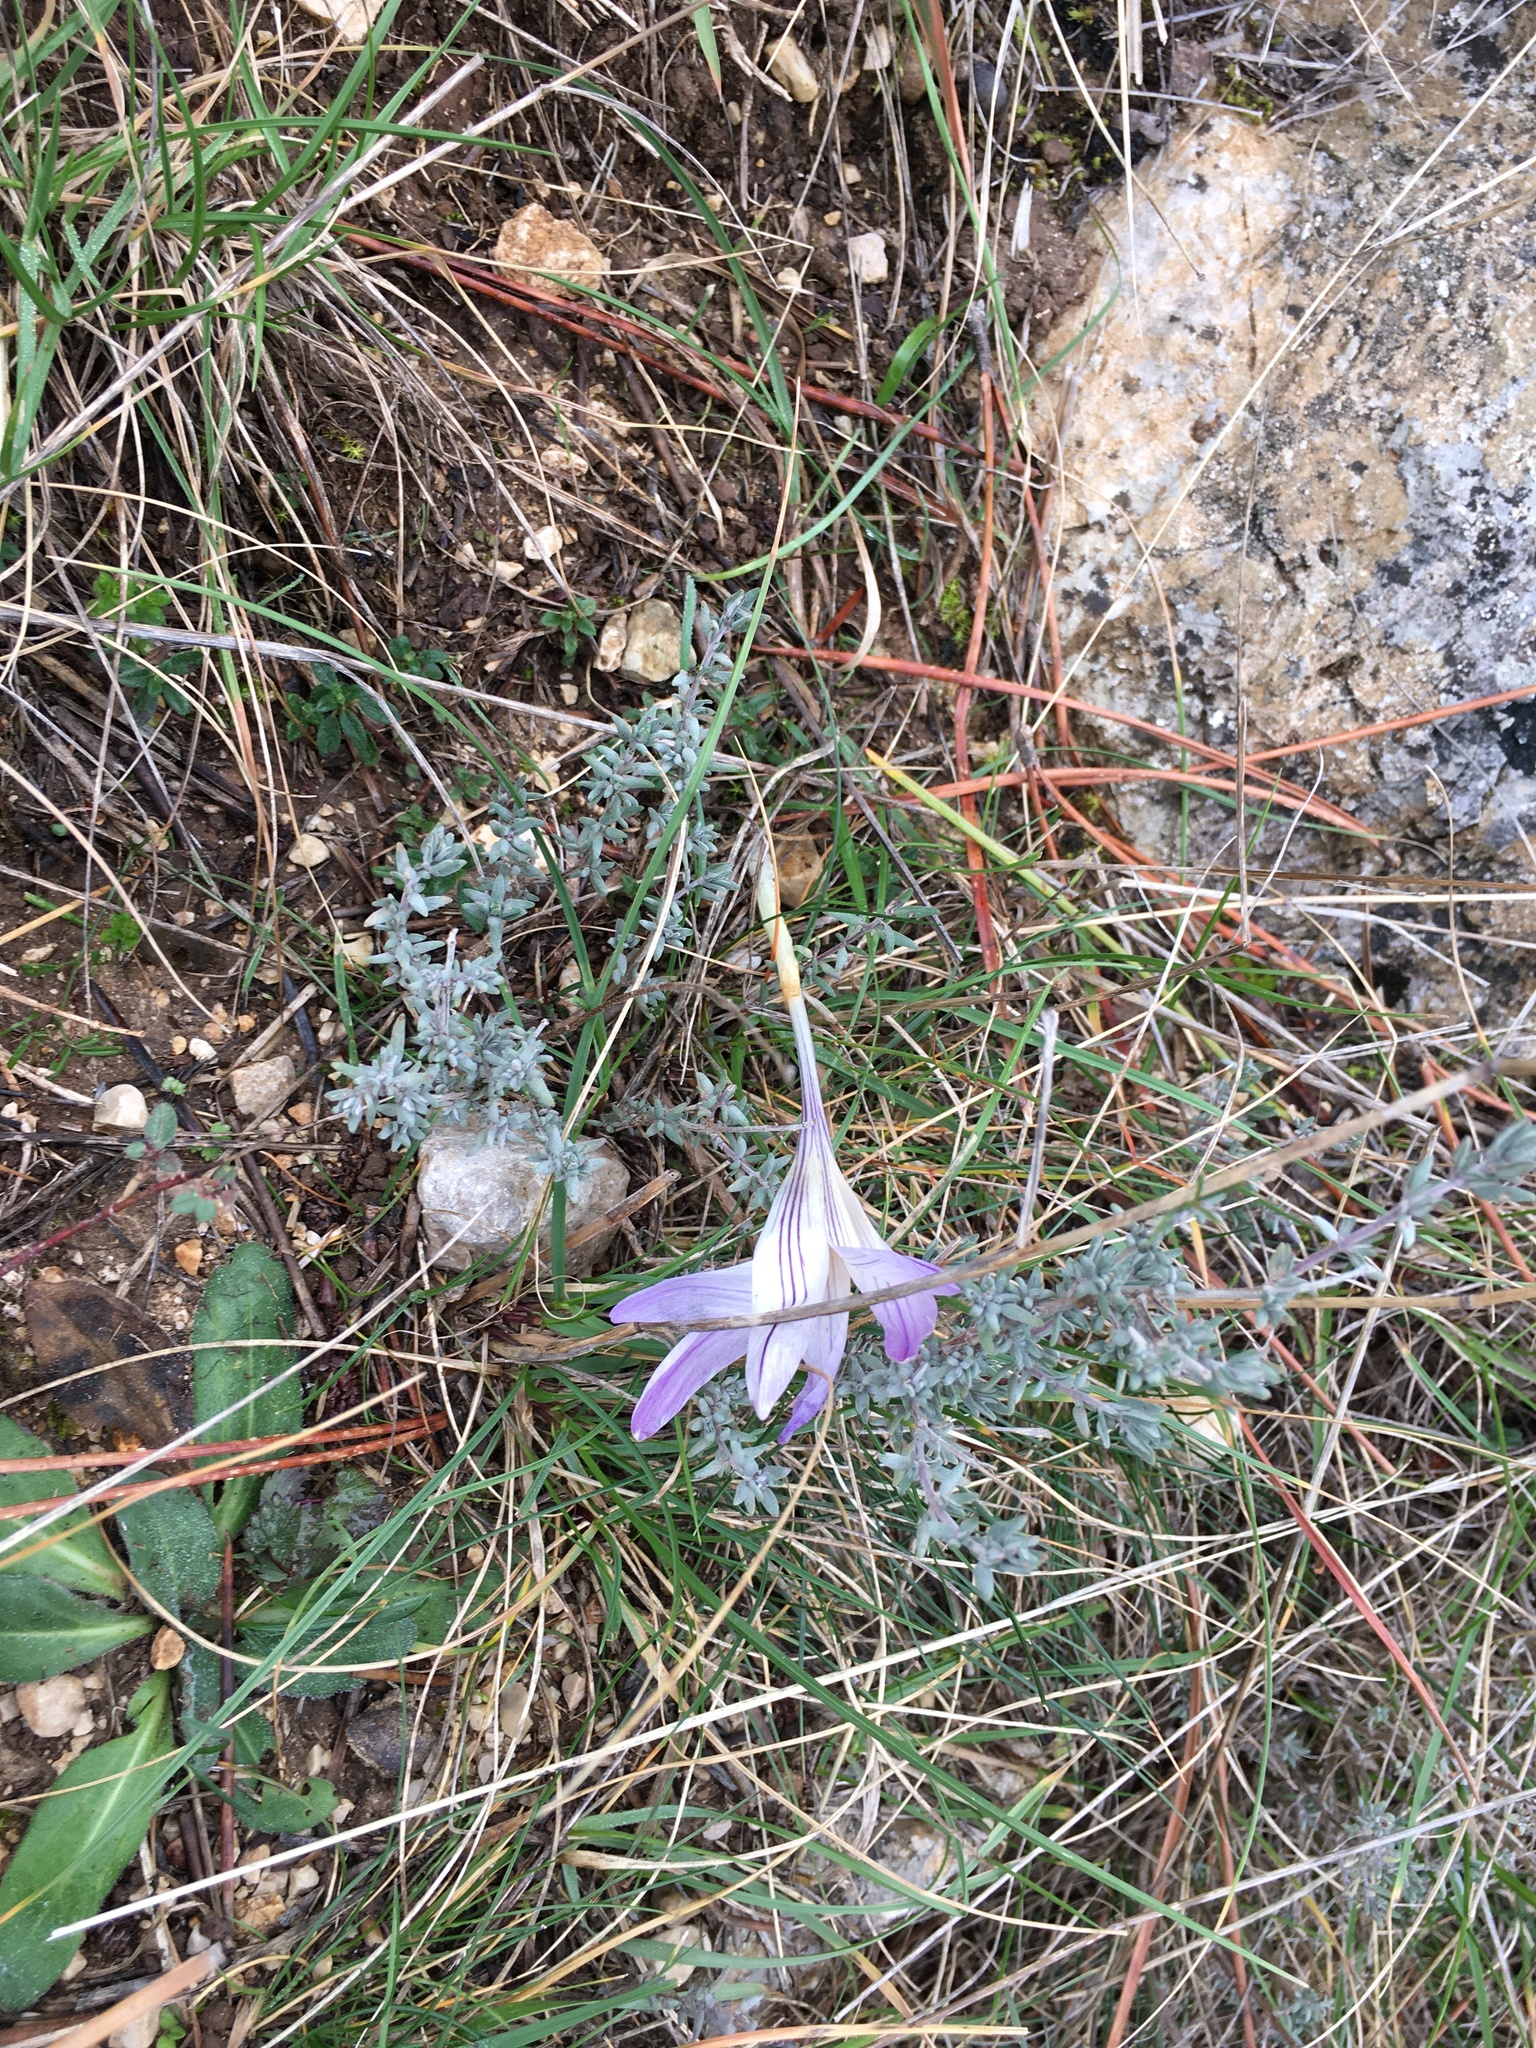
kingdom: Plantae
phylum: Tracheophyta
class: Liliopsida
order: Asparagales
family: Iridaceae
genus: Crocus
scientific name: Crocus versicolor
